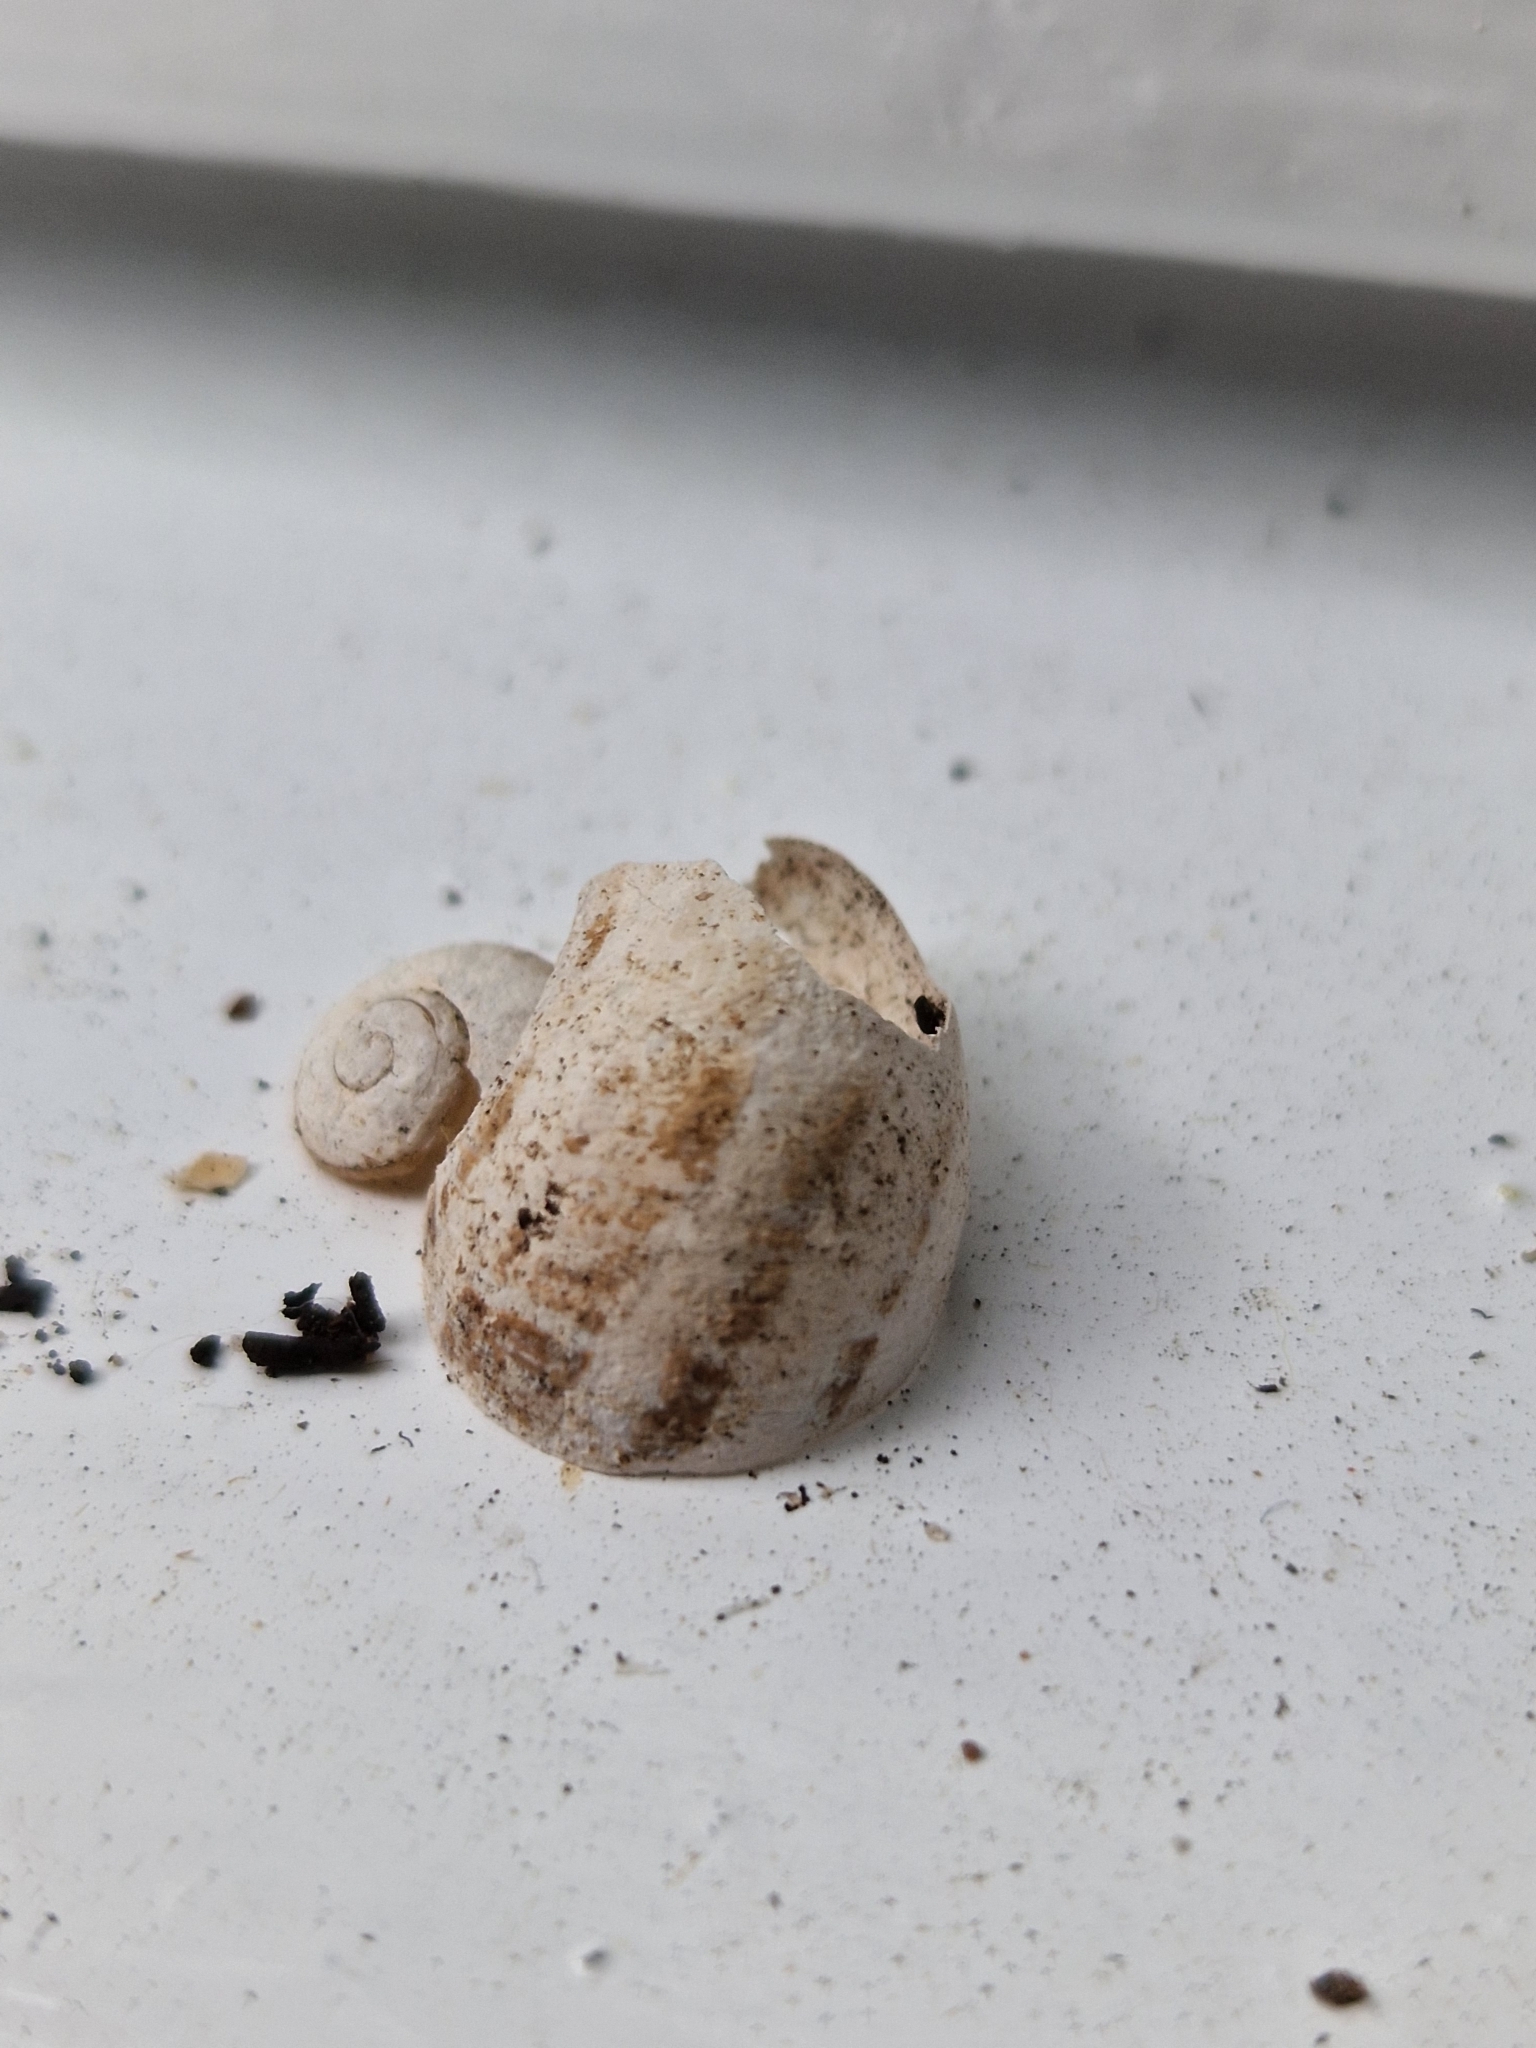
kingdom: Animalia
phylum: Mollusca
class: Gastropoda
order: Stylommatophora
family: Helicidae
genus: Cornu
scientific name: Cornu aspersum
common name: Brown garden snail
